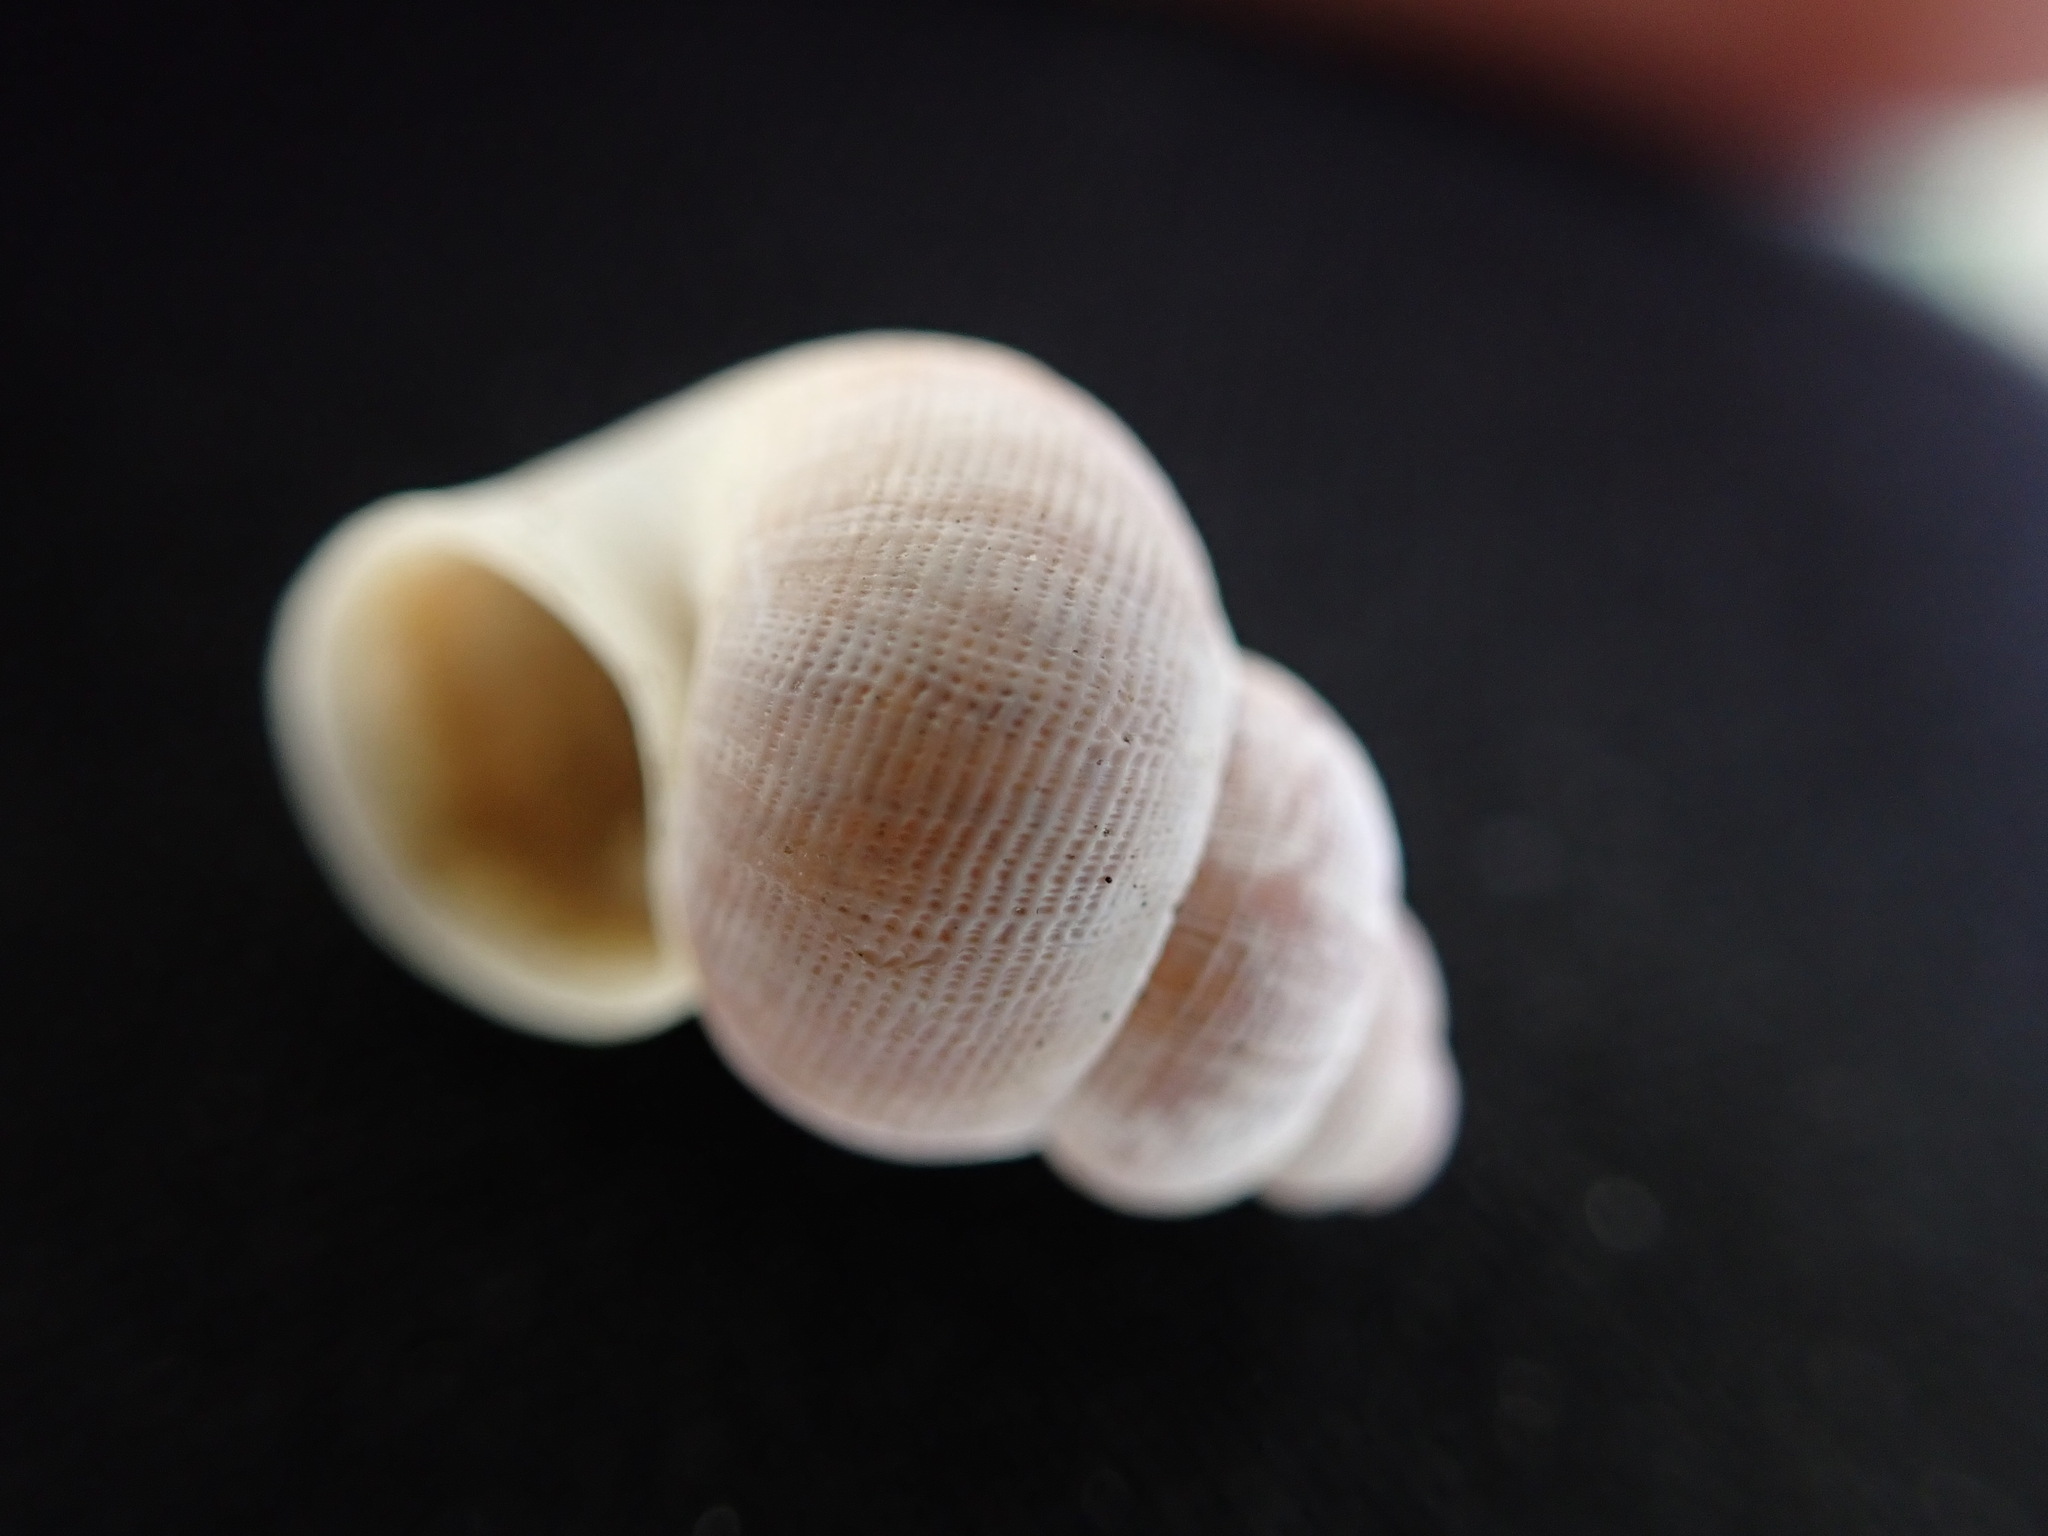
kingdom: Animalia
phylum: Mollusca
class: Gastropoda
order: Littorinimorpha
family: Pomatiidae
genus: Pomatias
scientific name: Pomatias elegans
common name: Red-mouthed snail
